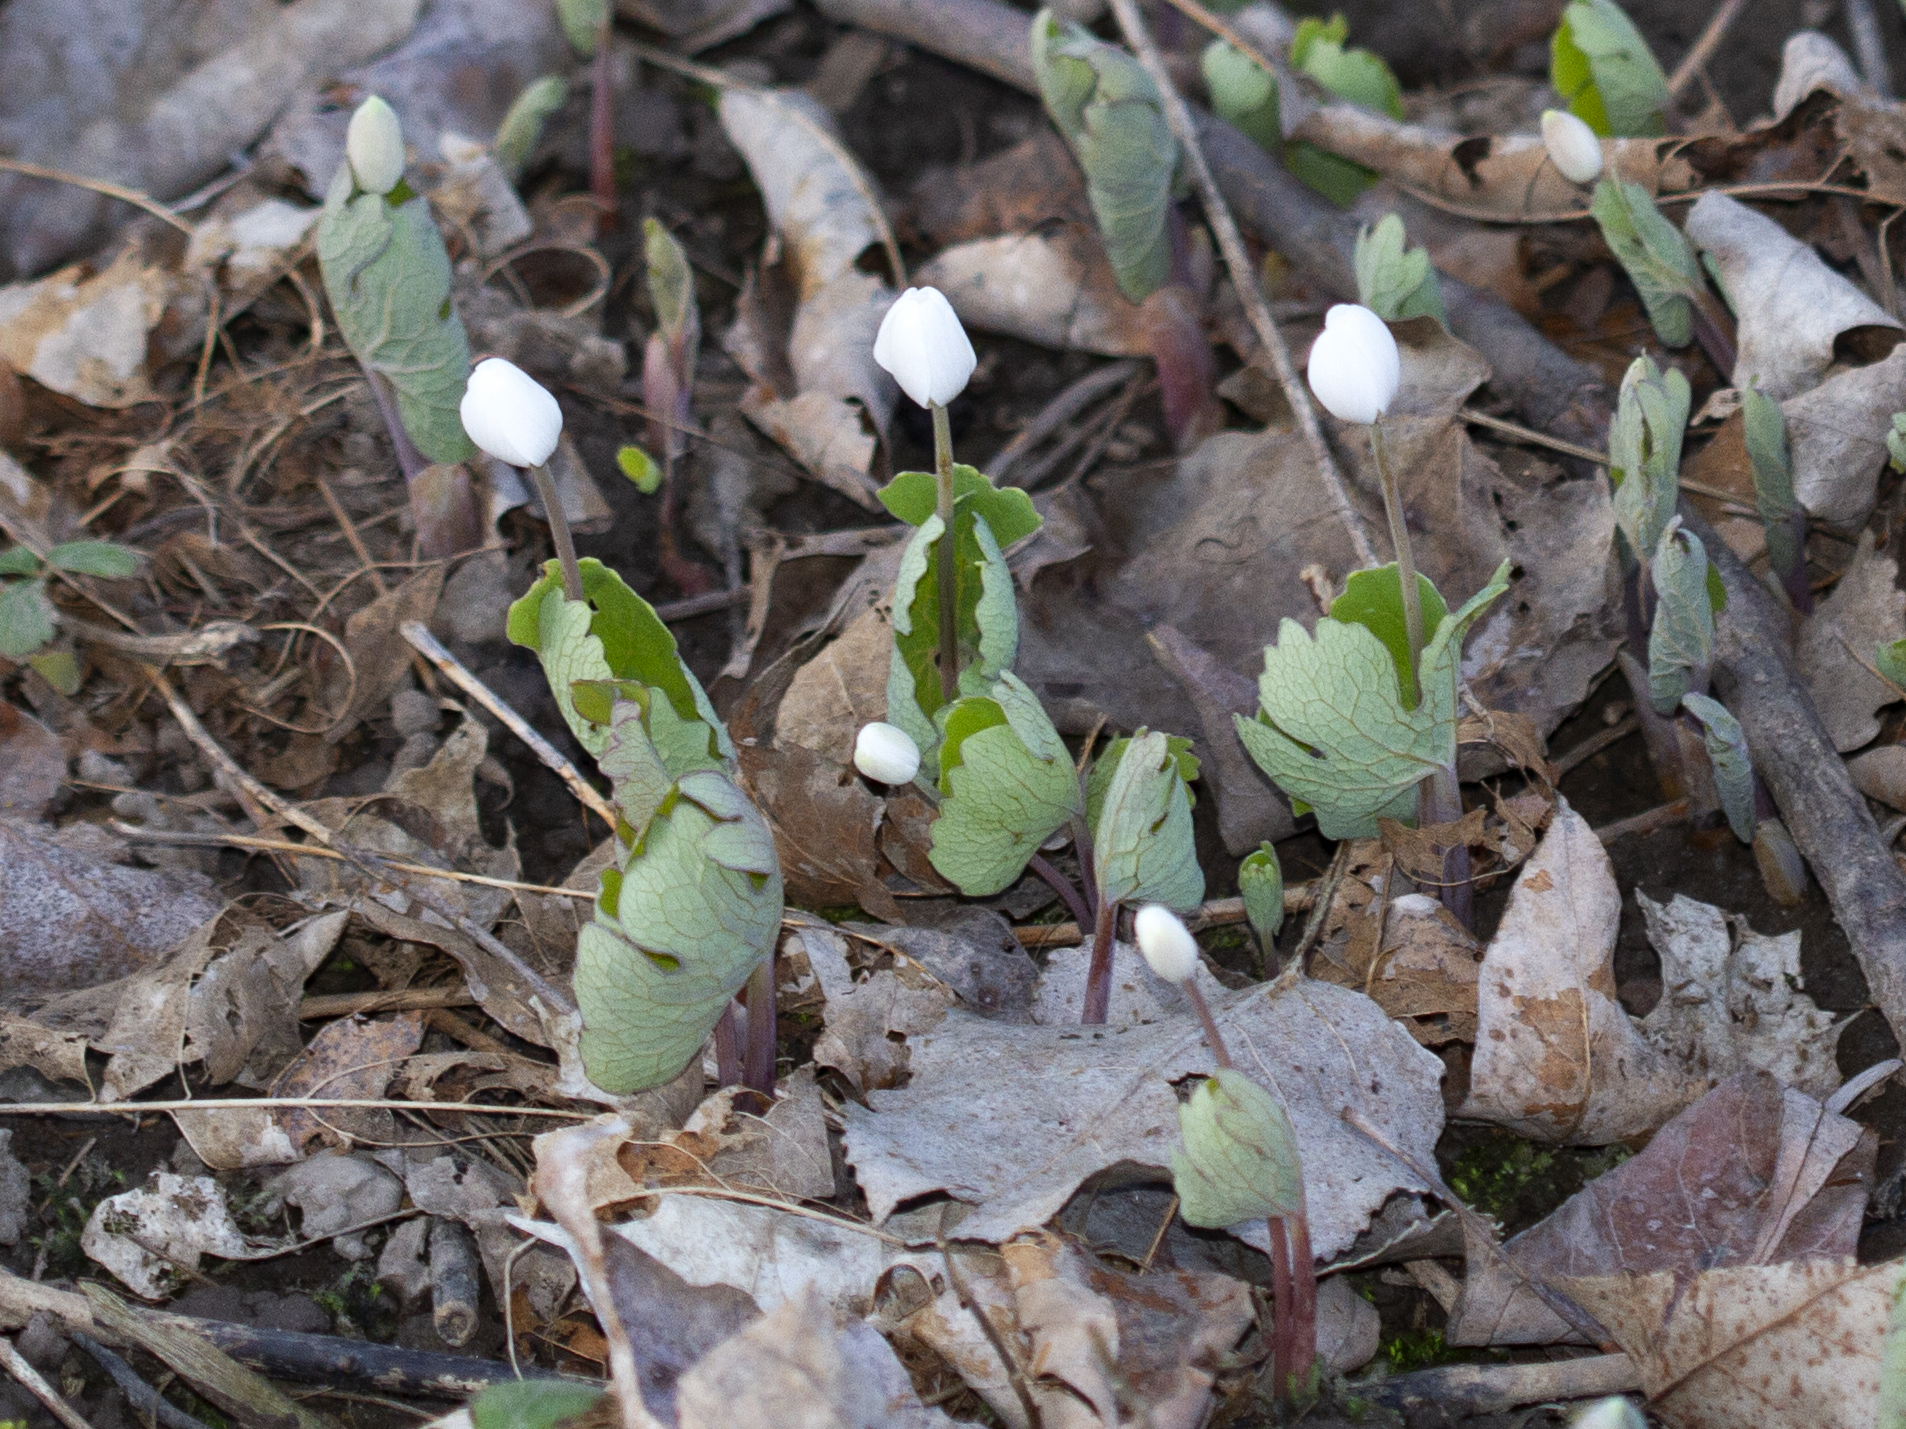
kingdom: Plantae
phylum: Tracheophyta
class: Magnoliopsida
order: Ranunculales
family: Papaveraceae
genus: Sanguinaria
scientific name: Sanguinaria canadensis
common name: Bloodroot
